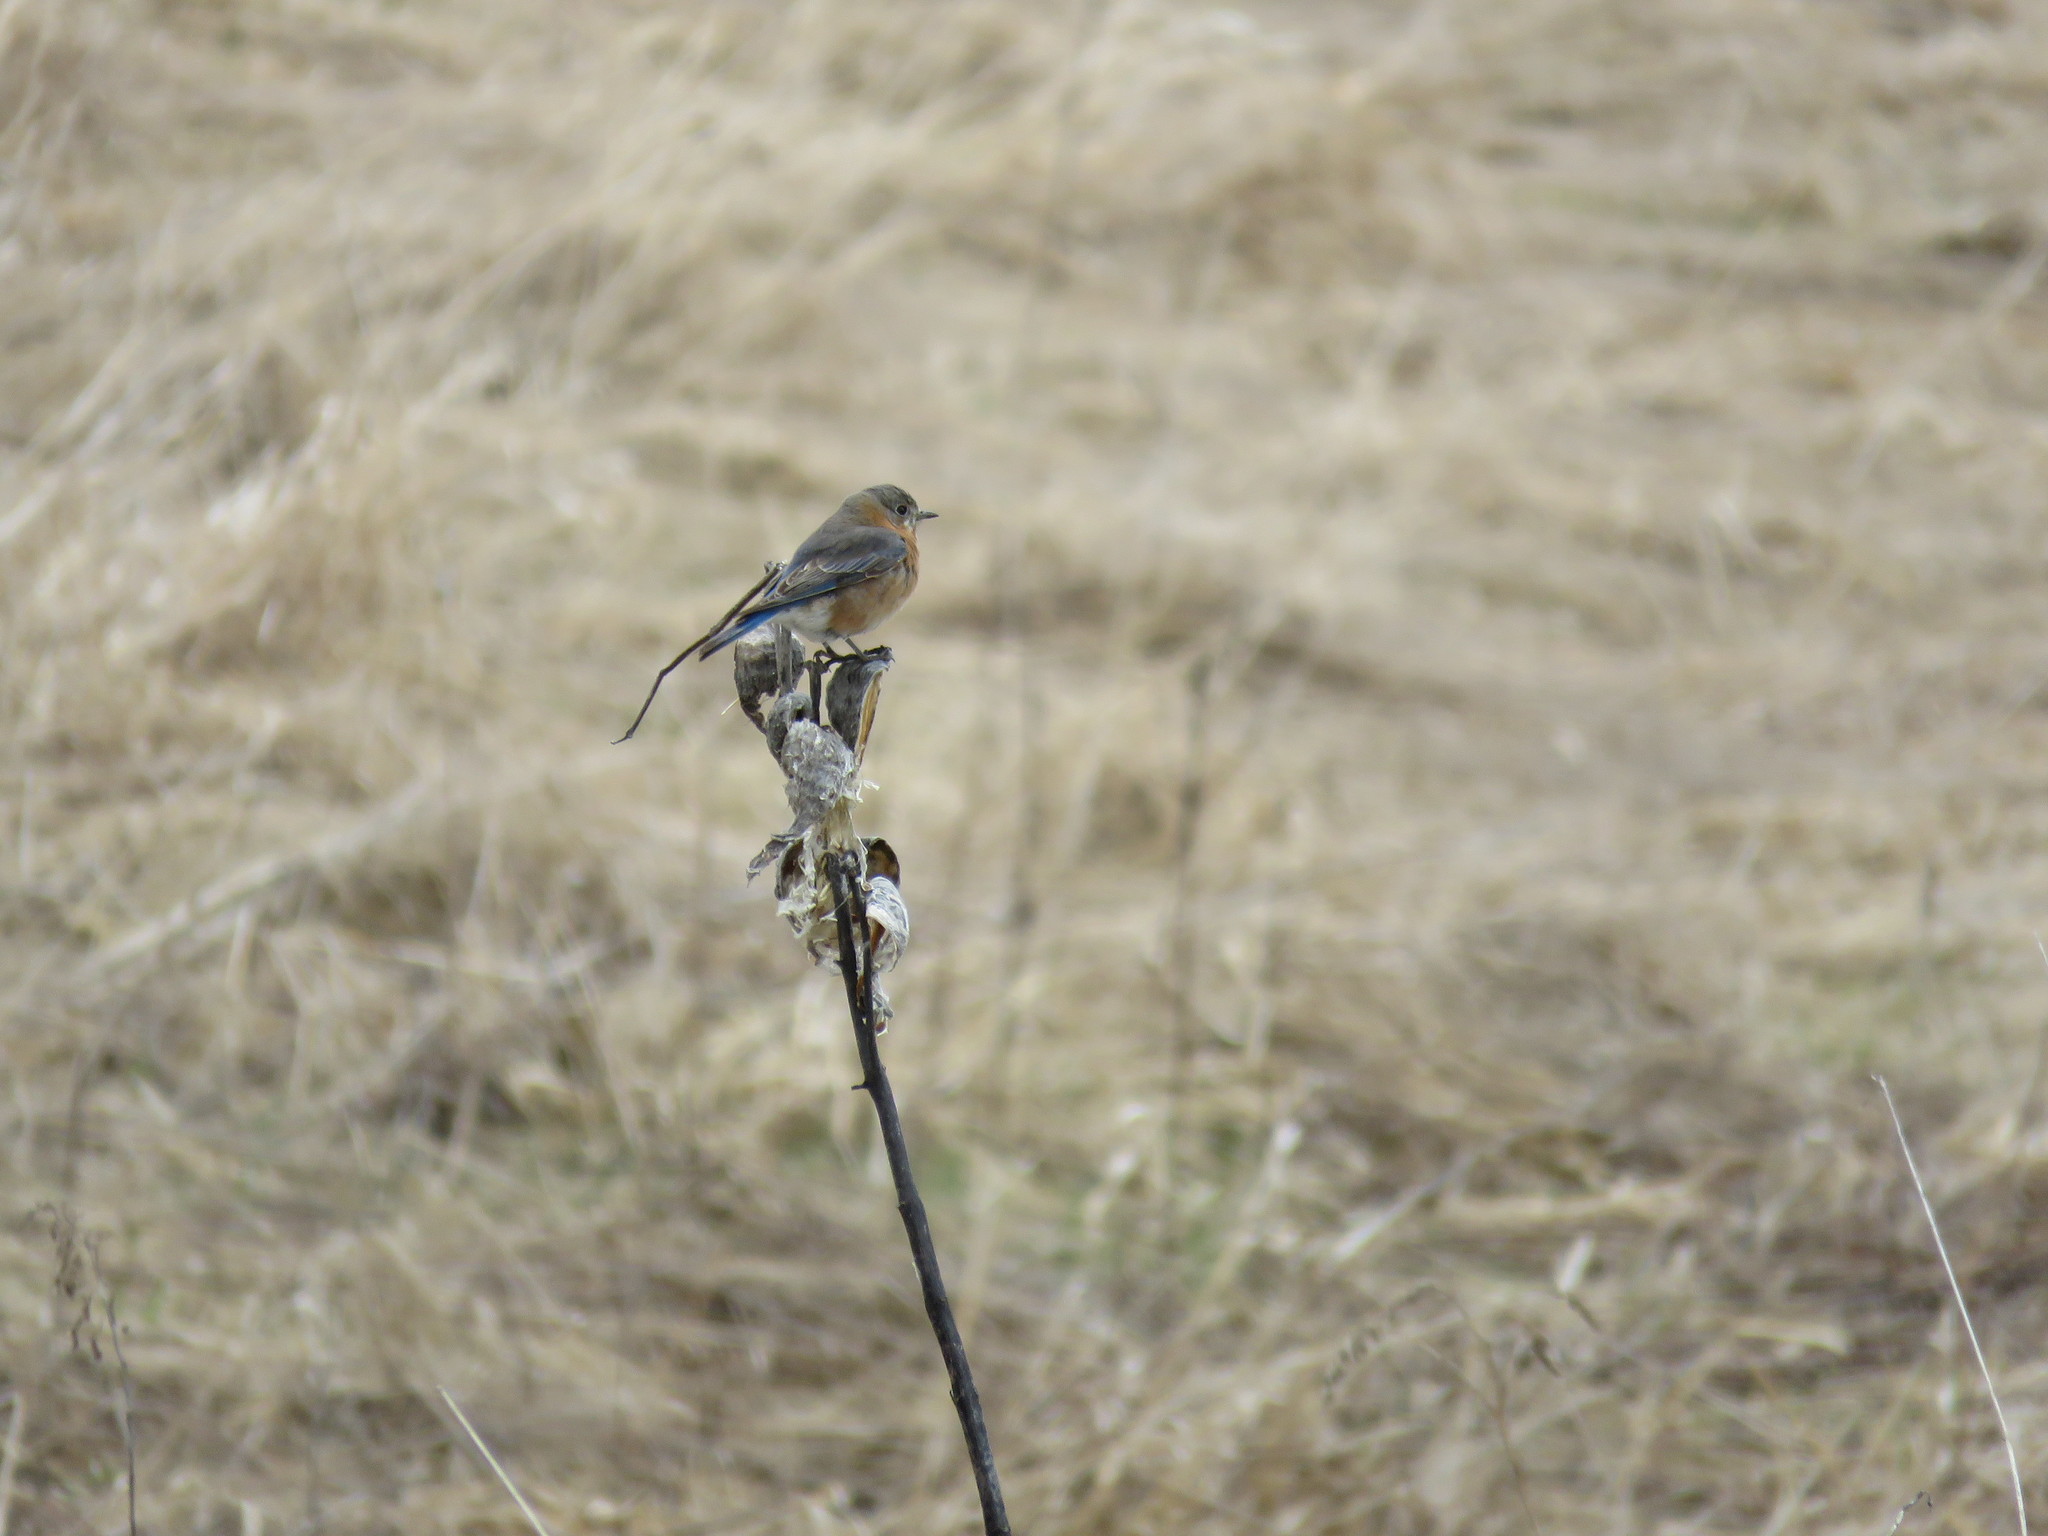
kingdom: Animalia
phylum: Chordata
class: Aves
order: Passeriformes
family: Turdidae
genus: Sialia
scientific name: Sialia sialis
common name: Eastern bluebird
